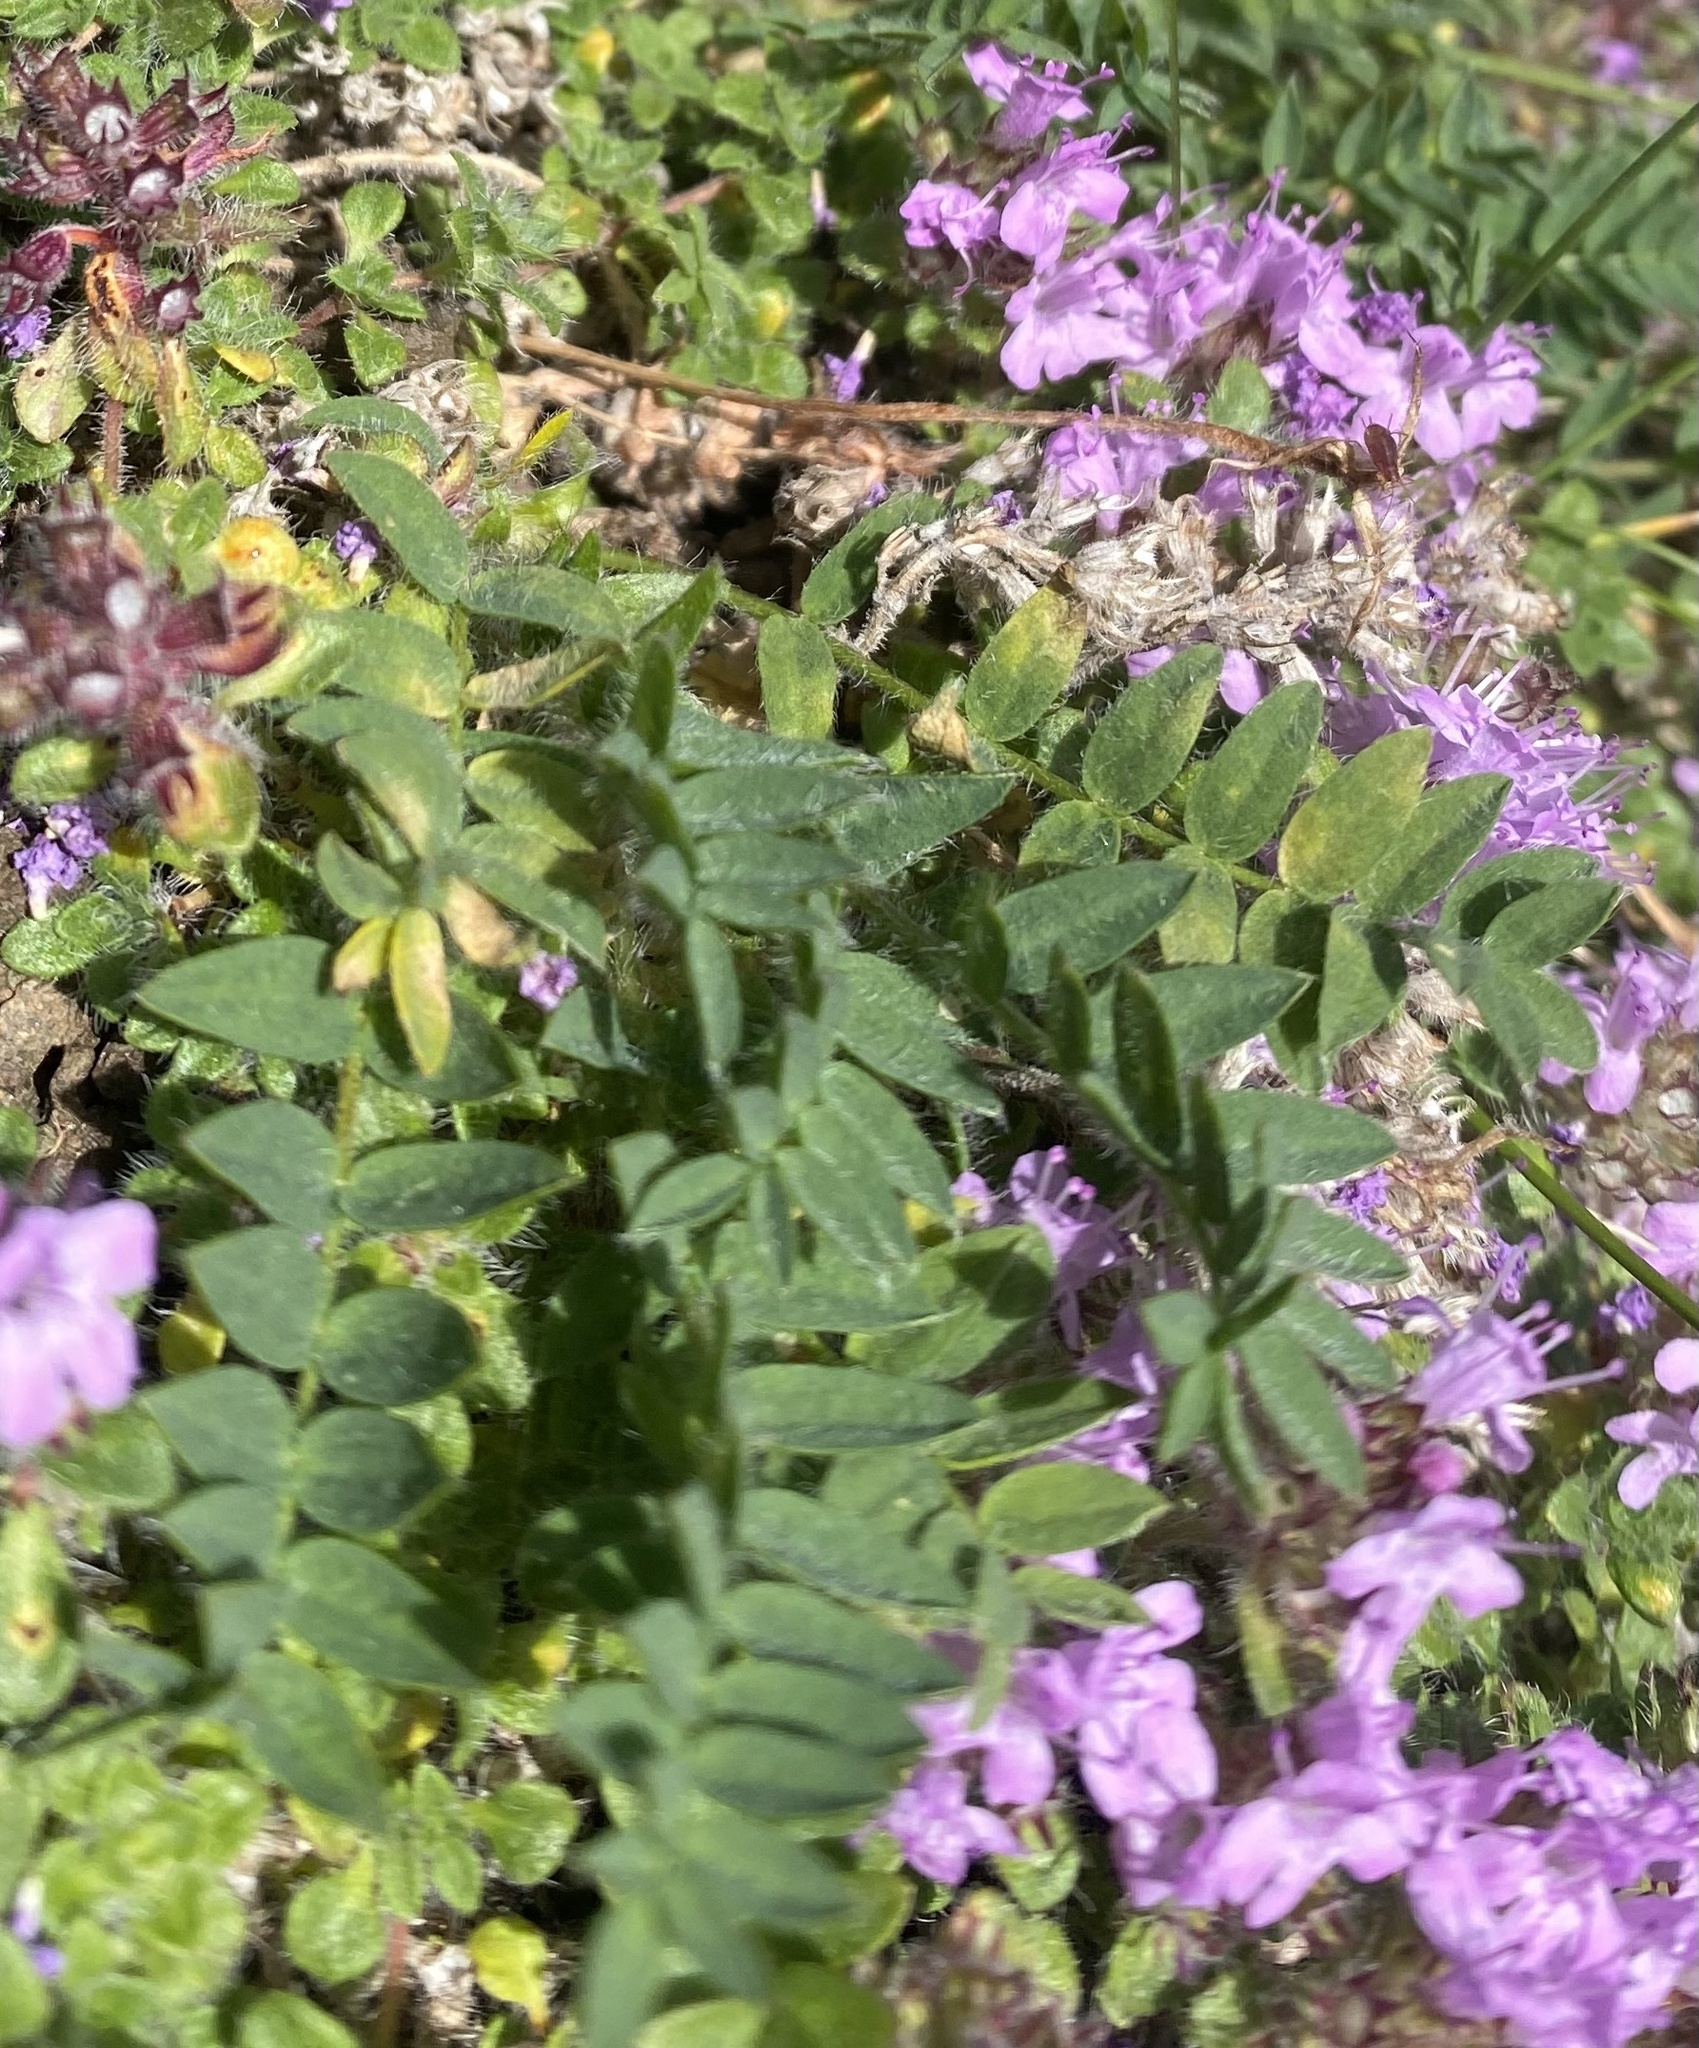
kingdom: Plantae
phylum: Tracheophyta
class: Magnoliopsida
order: Fabales
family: Fabaceae
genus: Oxytropis
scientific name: Oxytropis
